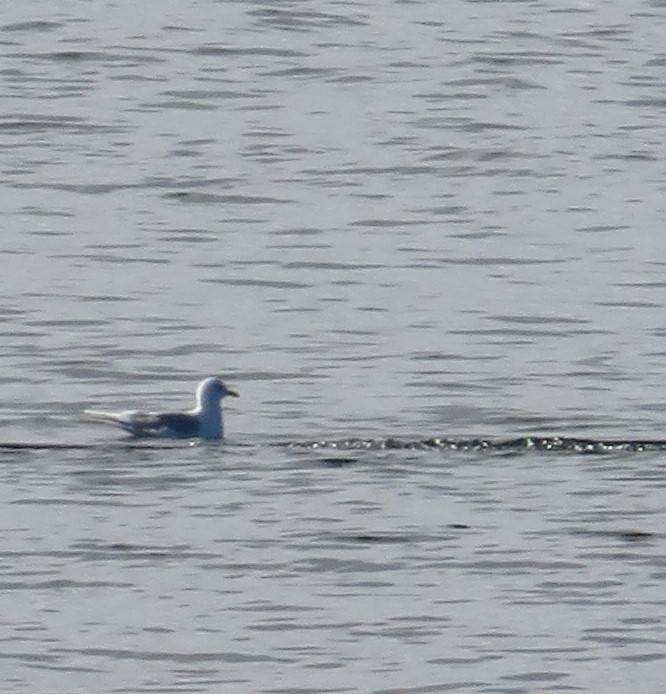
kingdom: Animalia
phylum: Chordata
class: Aves
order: Charadriiformes
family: Laridae
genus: Larus
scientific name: Larus glaucoides
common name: Iceland gull
